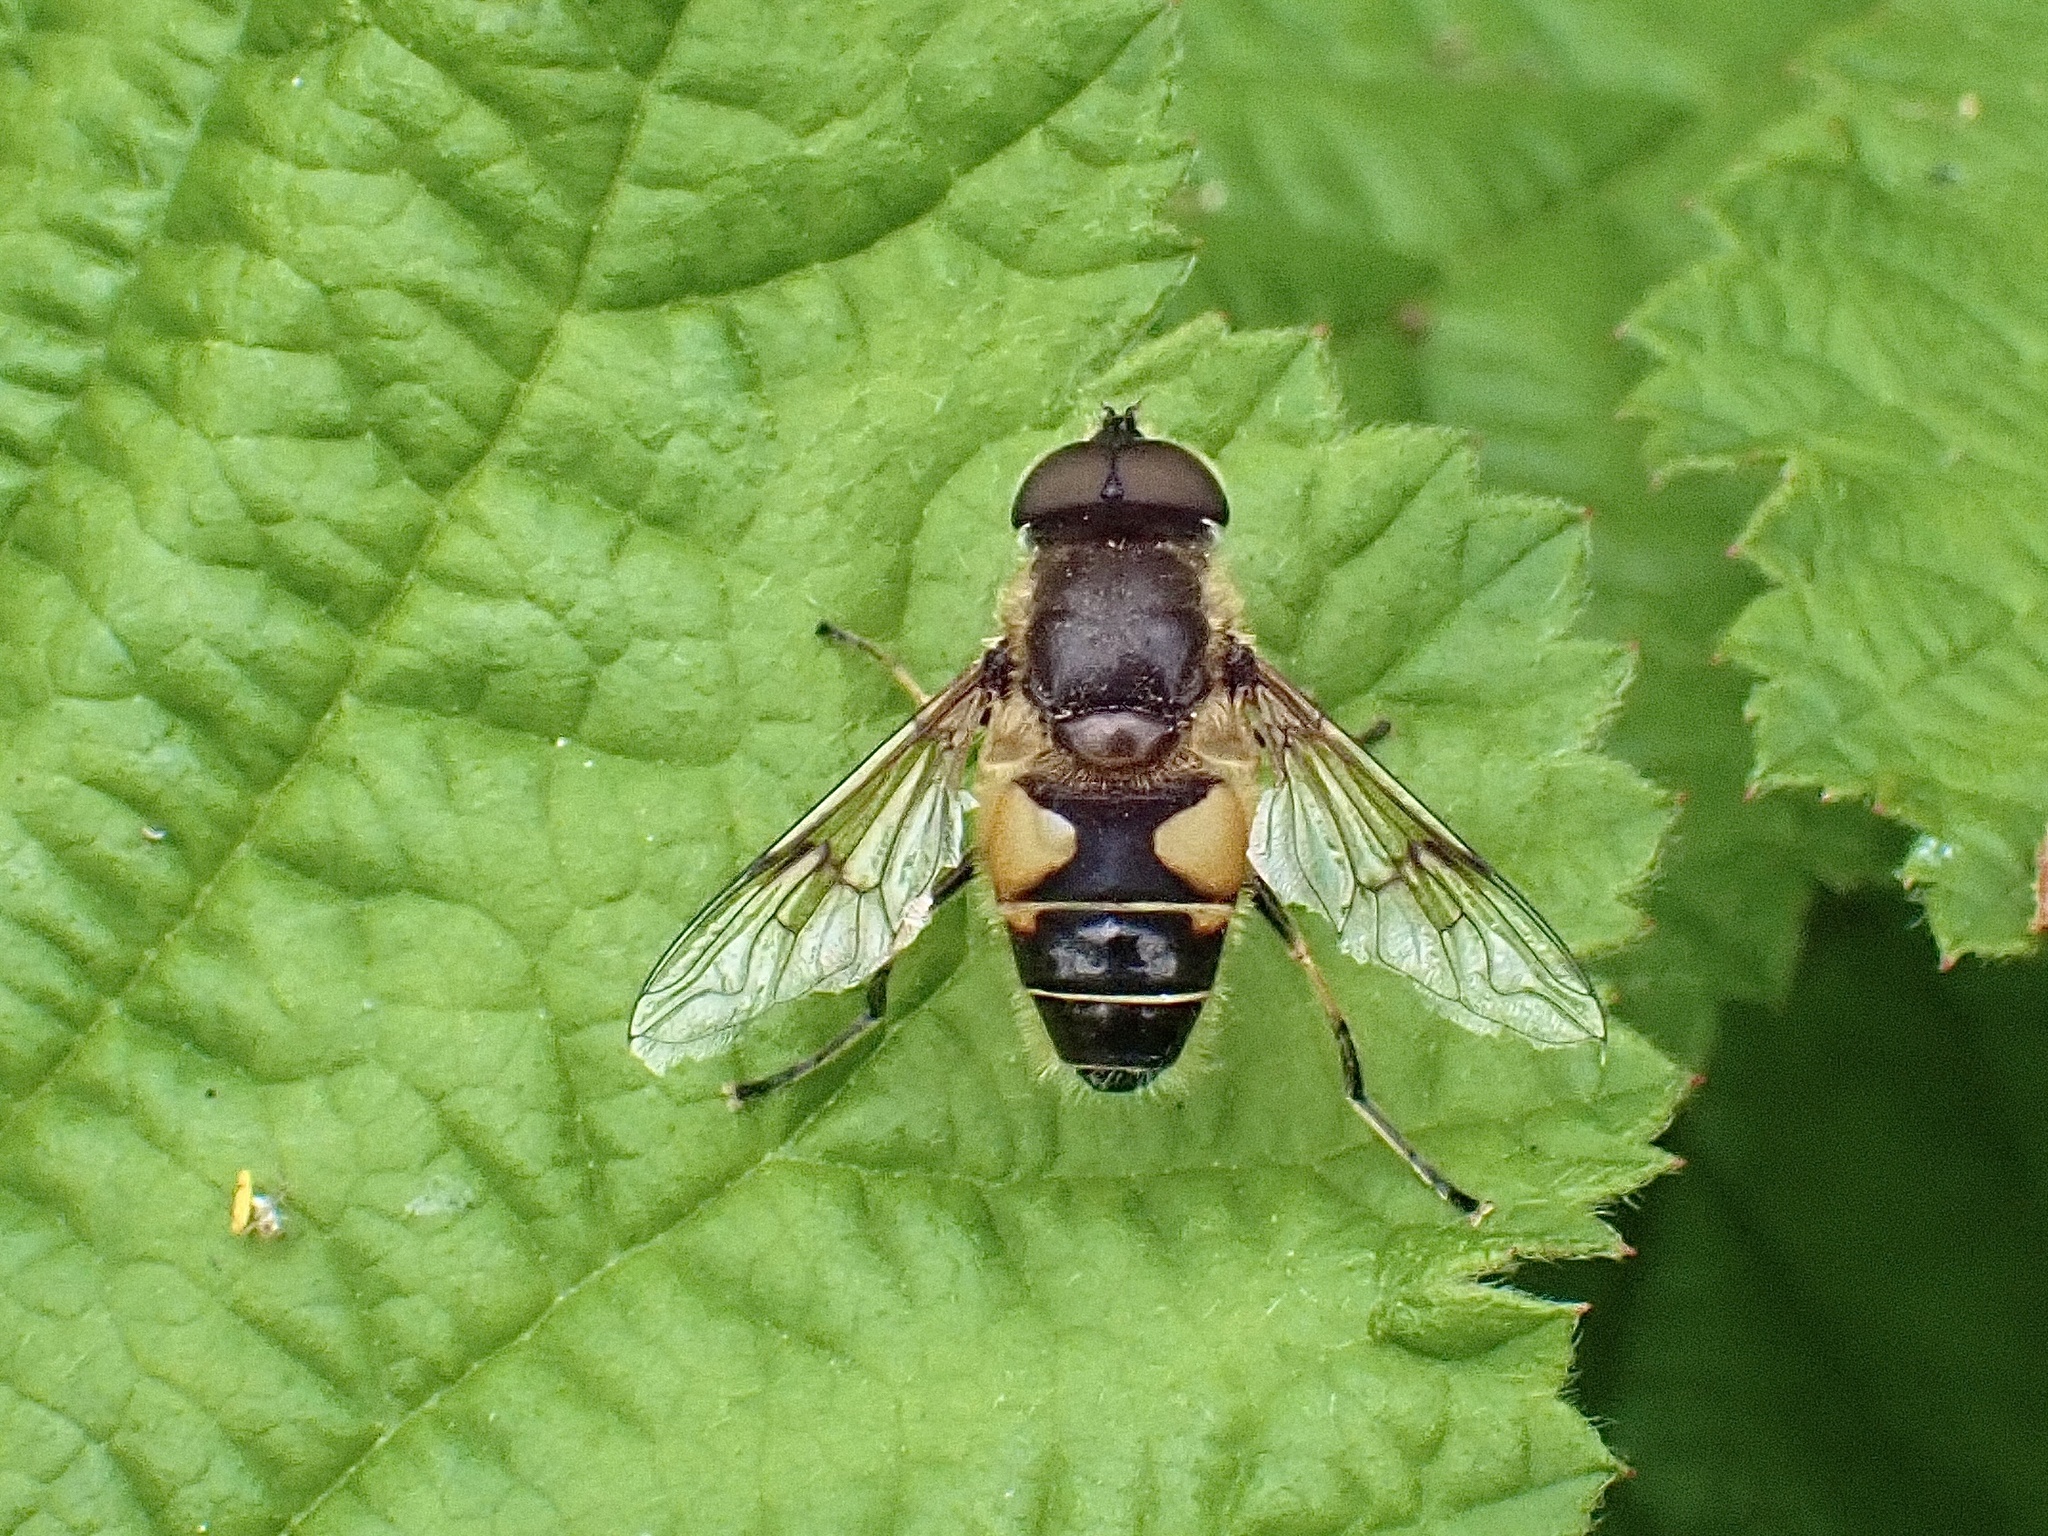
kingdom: Animalia
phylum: Arthropoda
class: Insecta
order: Diptera
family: Syrphidae
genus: Cheilosia
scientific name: Cheilosia morio
